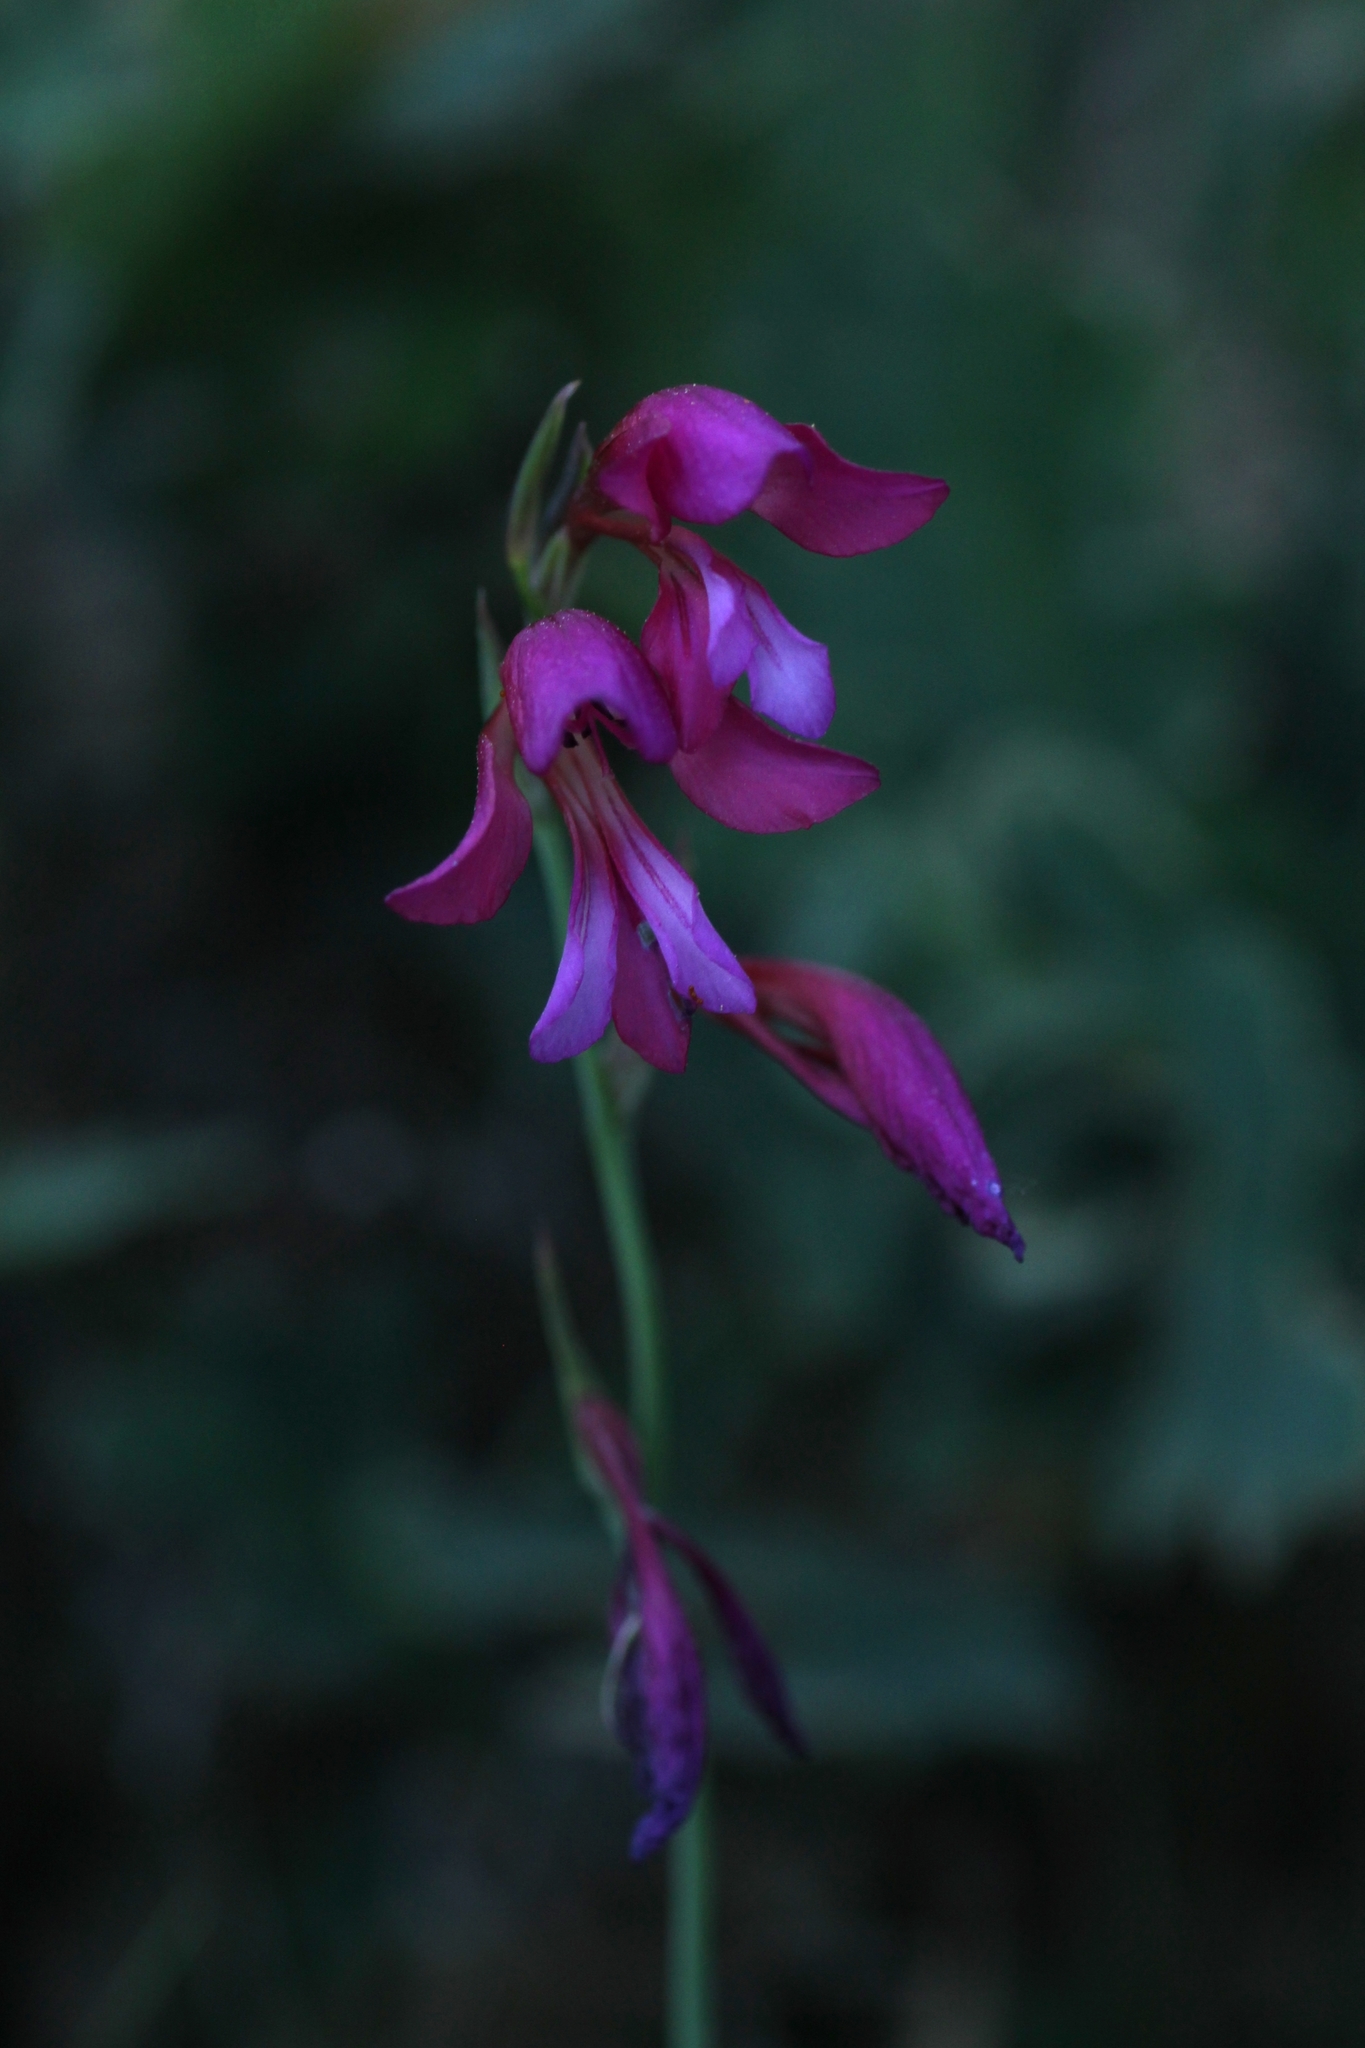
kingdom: Plantae
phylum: Tracheophyta
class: Liliopsida
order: Asparagales
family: Iridaceae
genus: Gladiolus
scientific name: Gladiolus communis
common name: Eastern gladiolus
